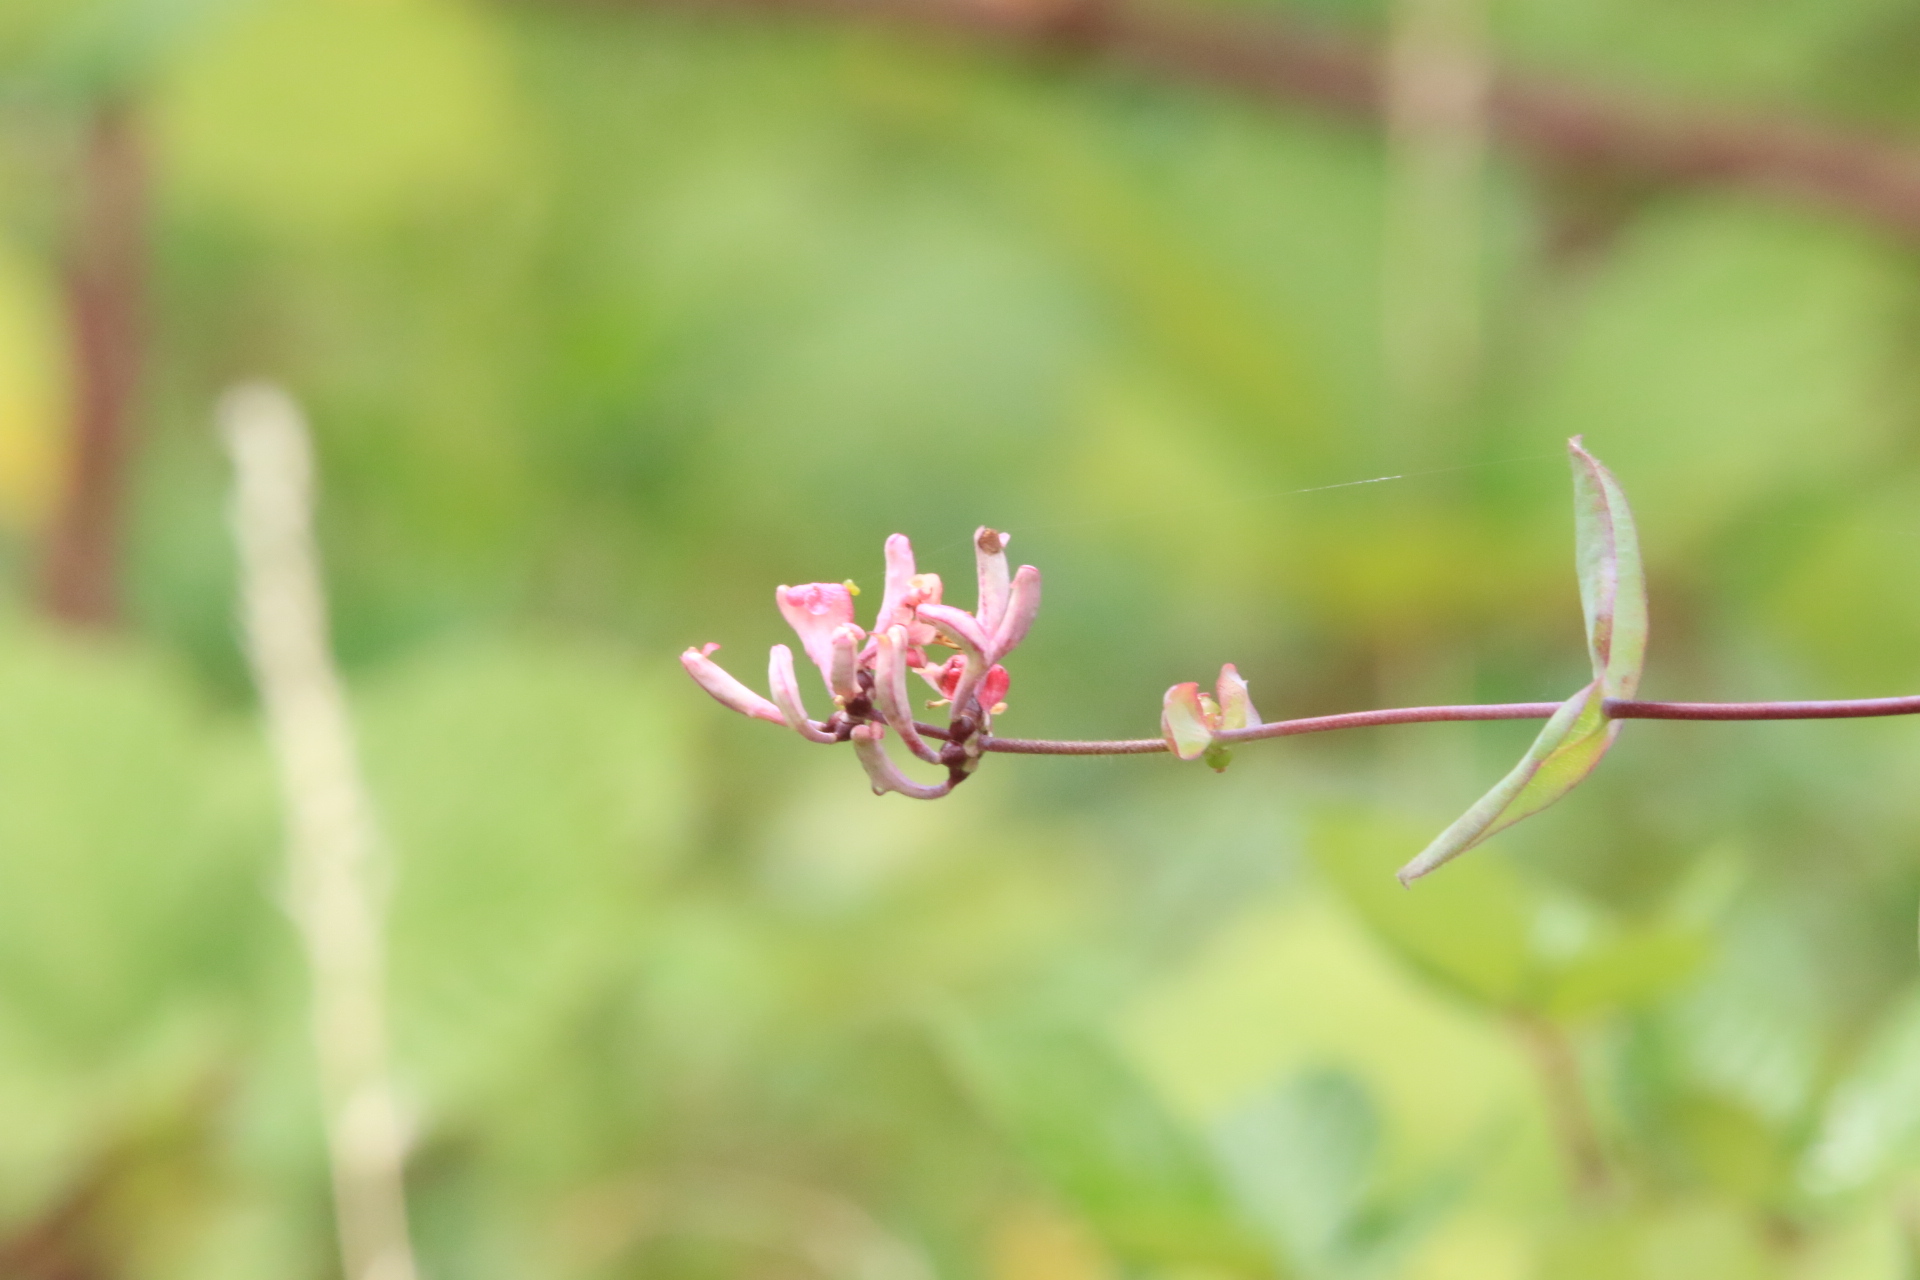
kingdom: Plantae
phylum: Tracheophyta
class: Magnoliopsida
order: Dipsacales
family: Caprifoliaceae
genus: Lonicera
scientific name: Lonicera hispidula
